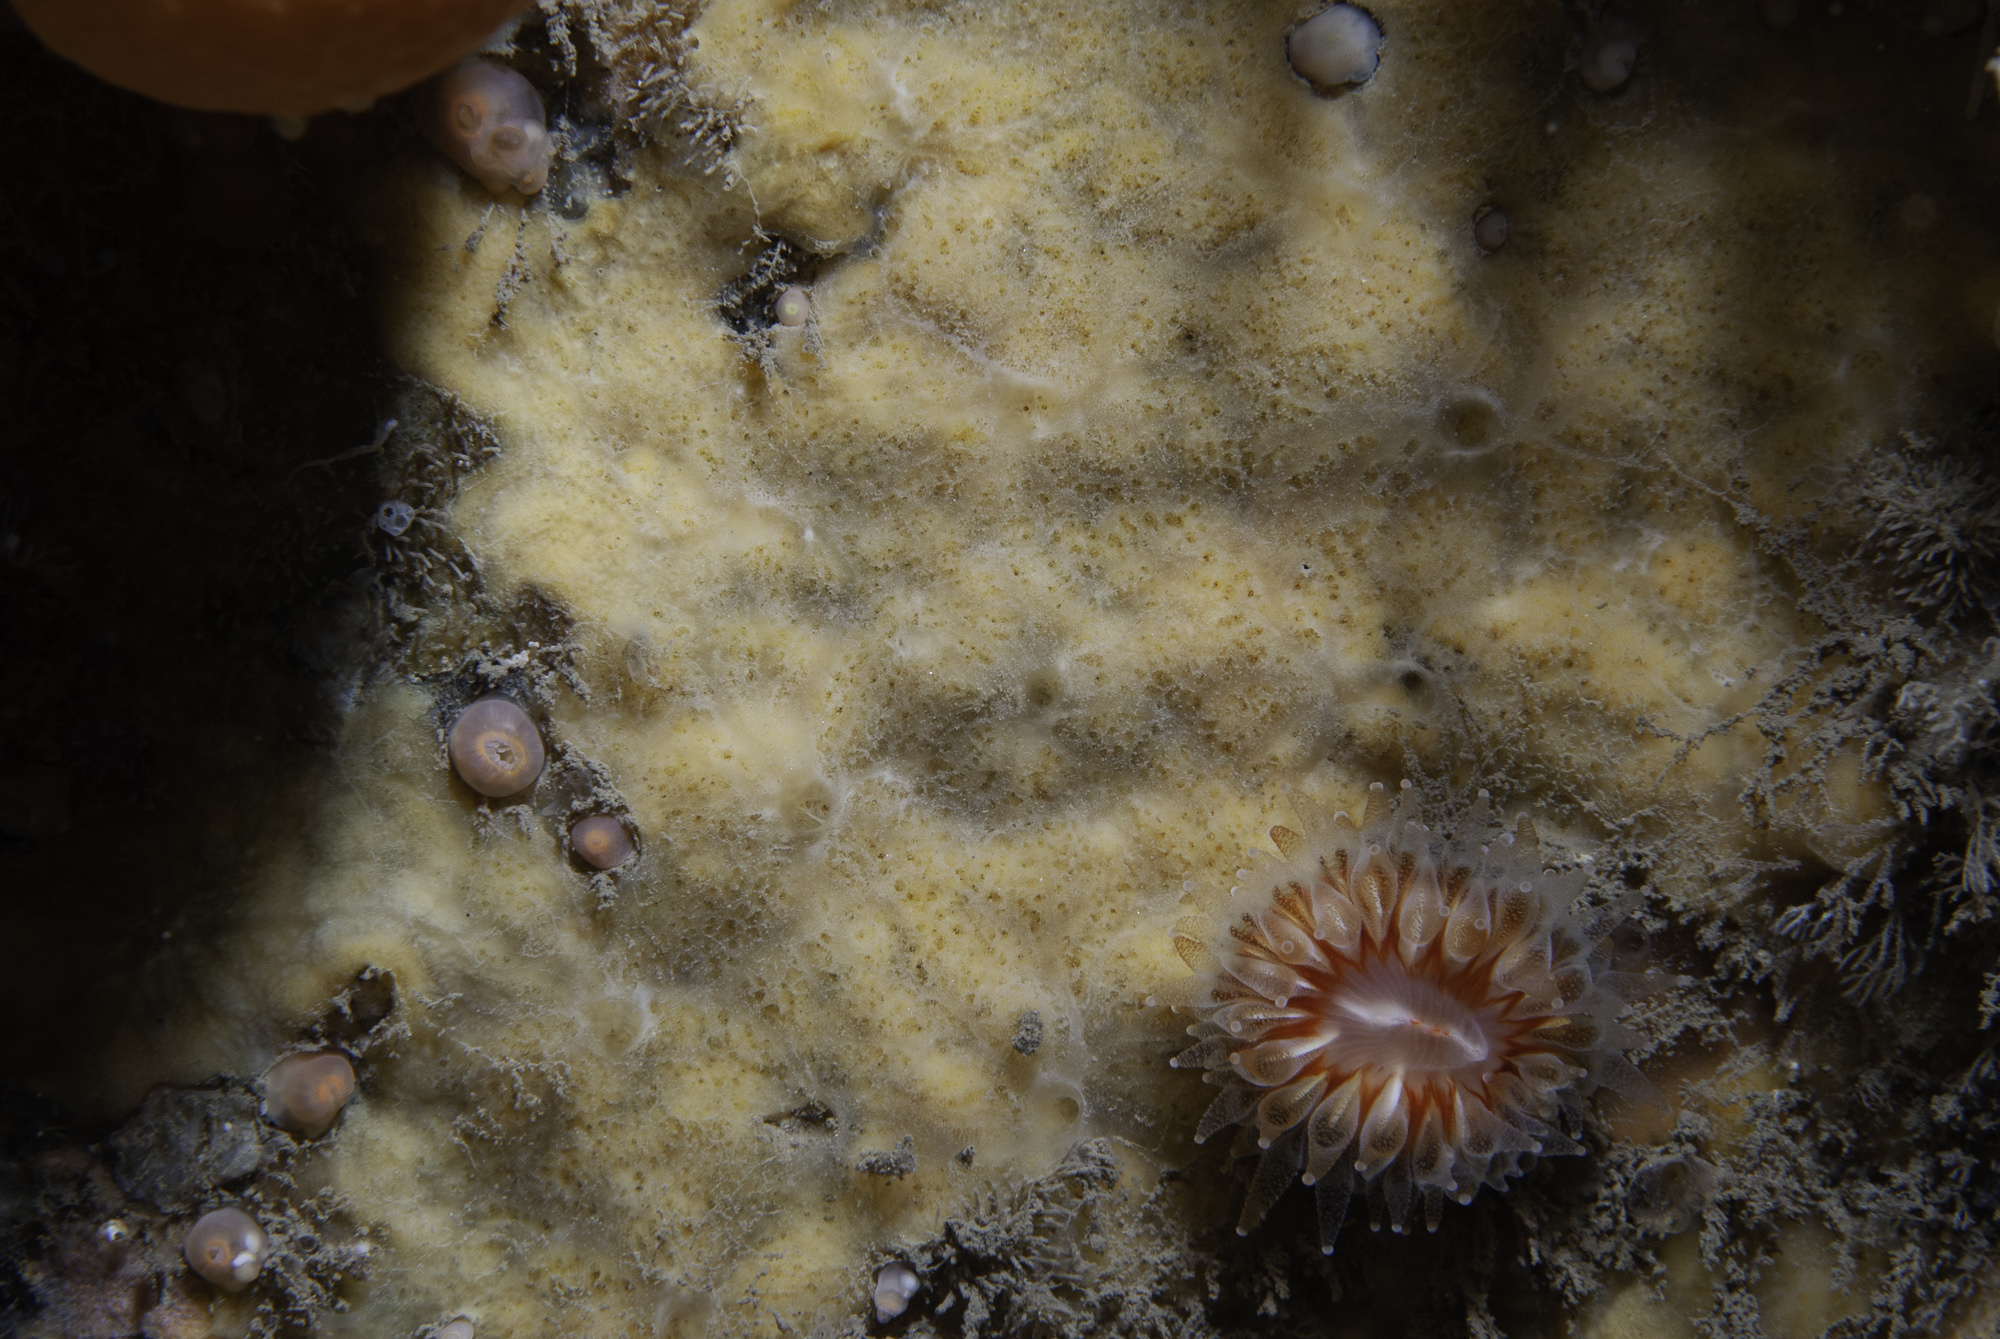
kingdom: Animalia
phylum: Porifera
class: Demospongiae
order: Poecilosclerida
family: Hymedesmiidae
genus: Plocamionida
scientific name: Plocamionida ambigua
